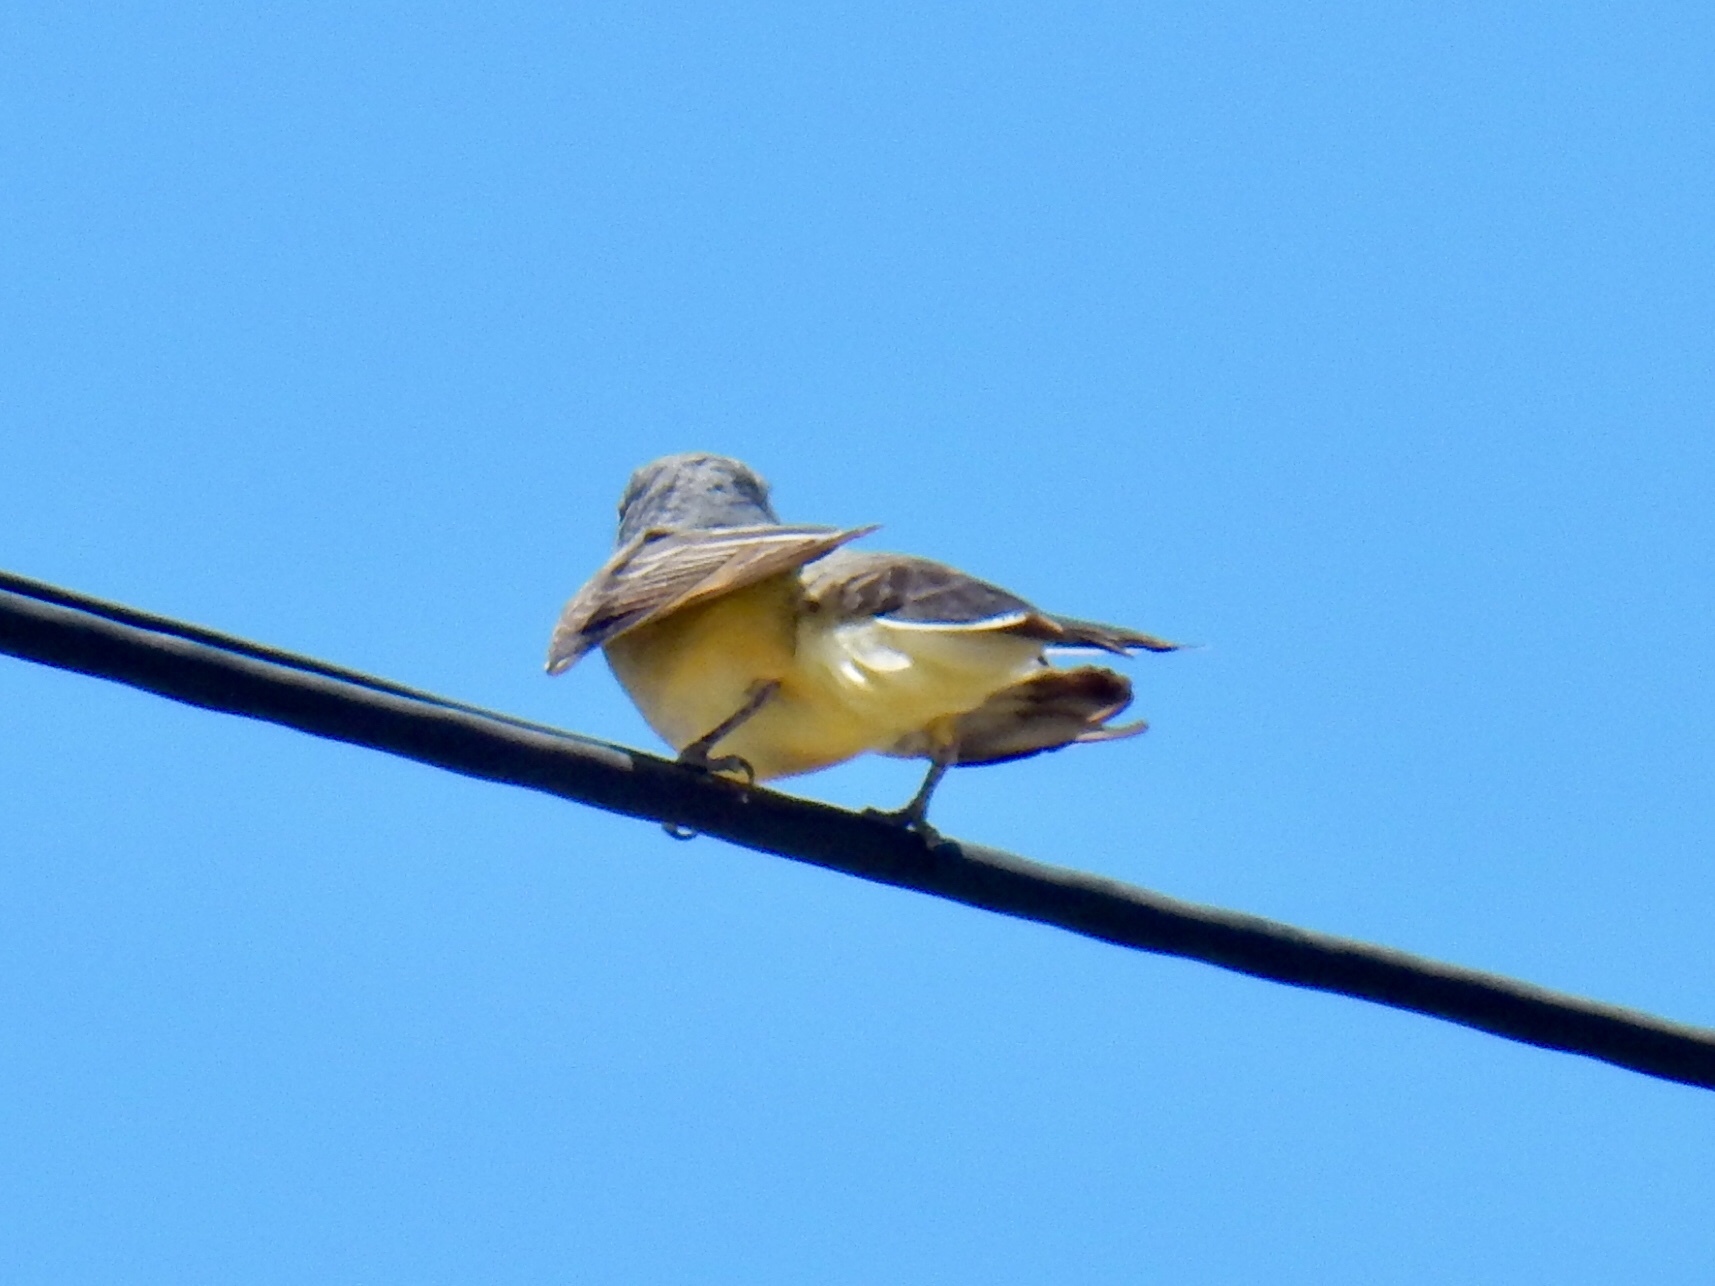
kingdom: Animalia
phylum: Chordata
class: Aves
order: Passeriformes
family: Tyrannidae
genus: Tyrannus
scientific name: Tyrannus verticalis
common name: Western kingbird
